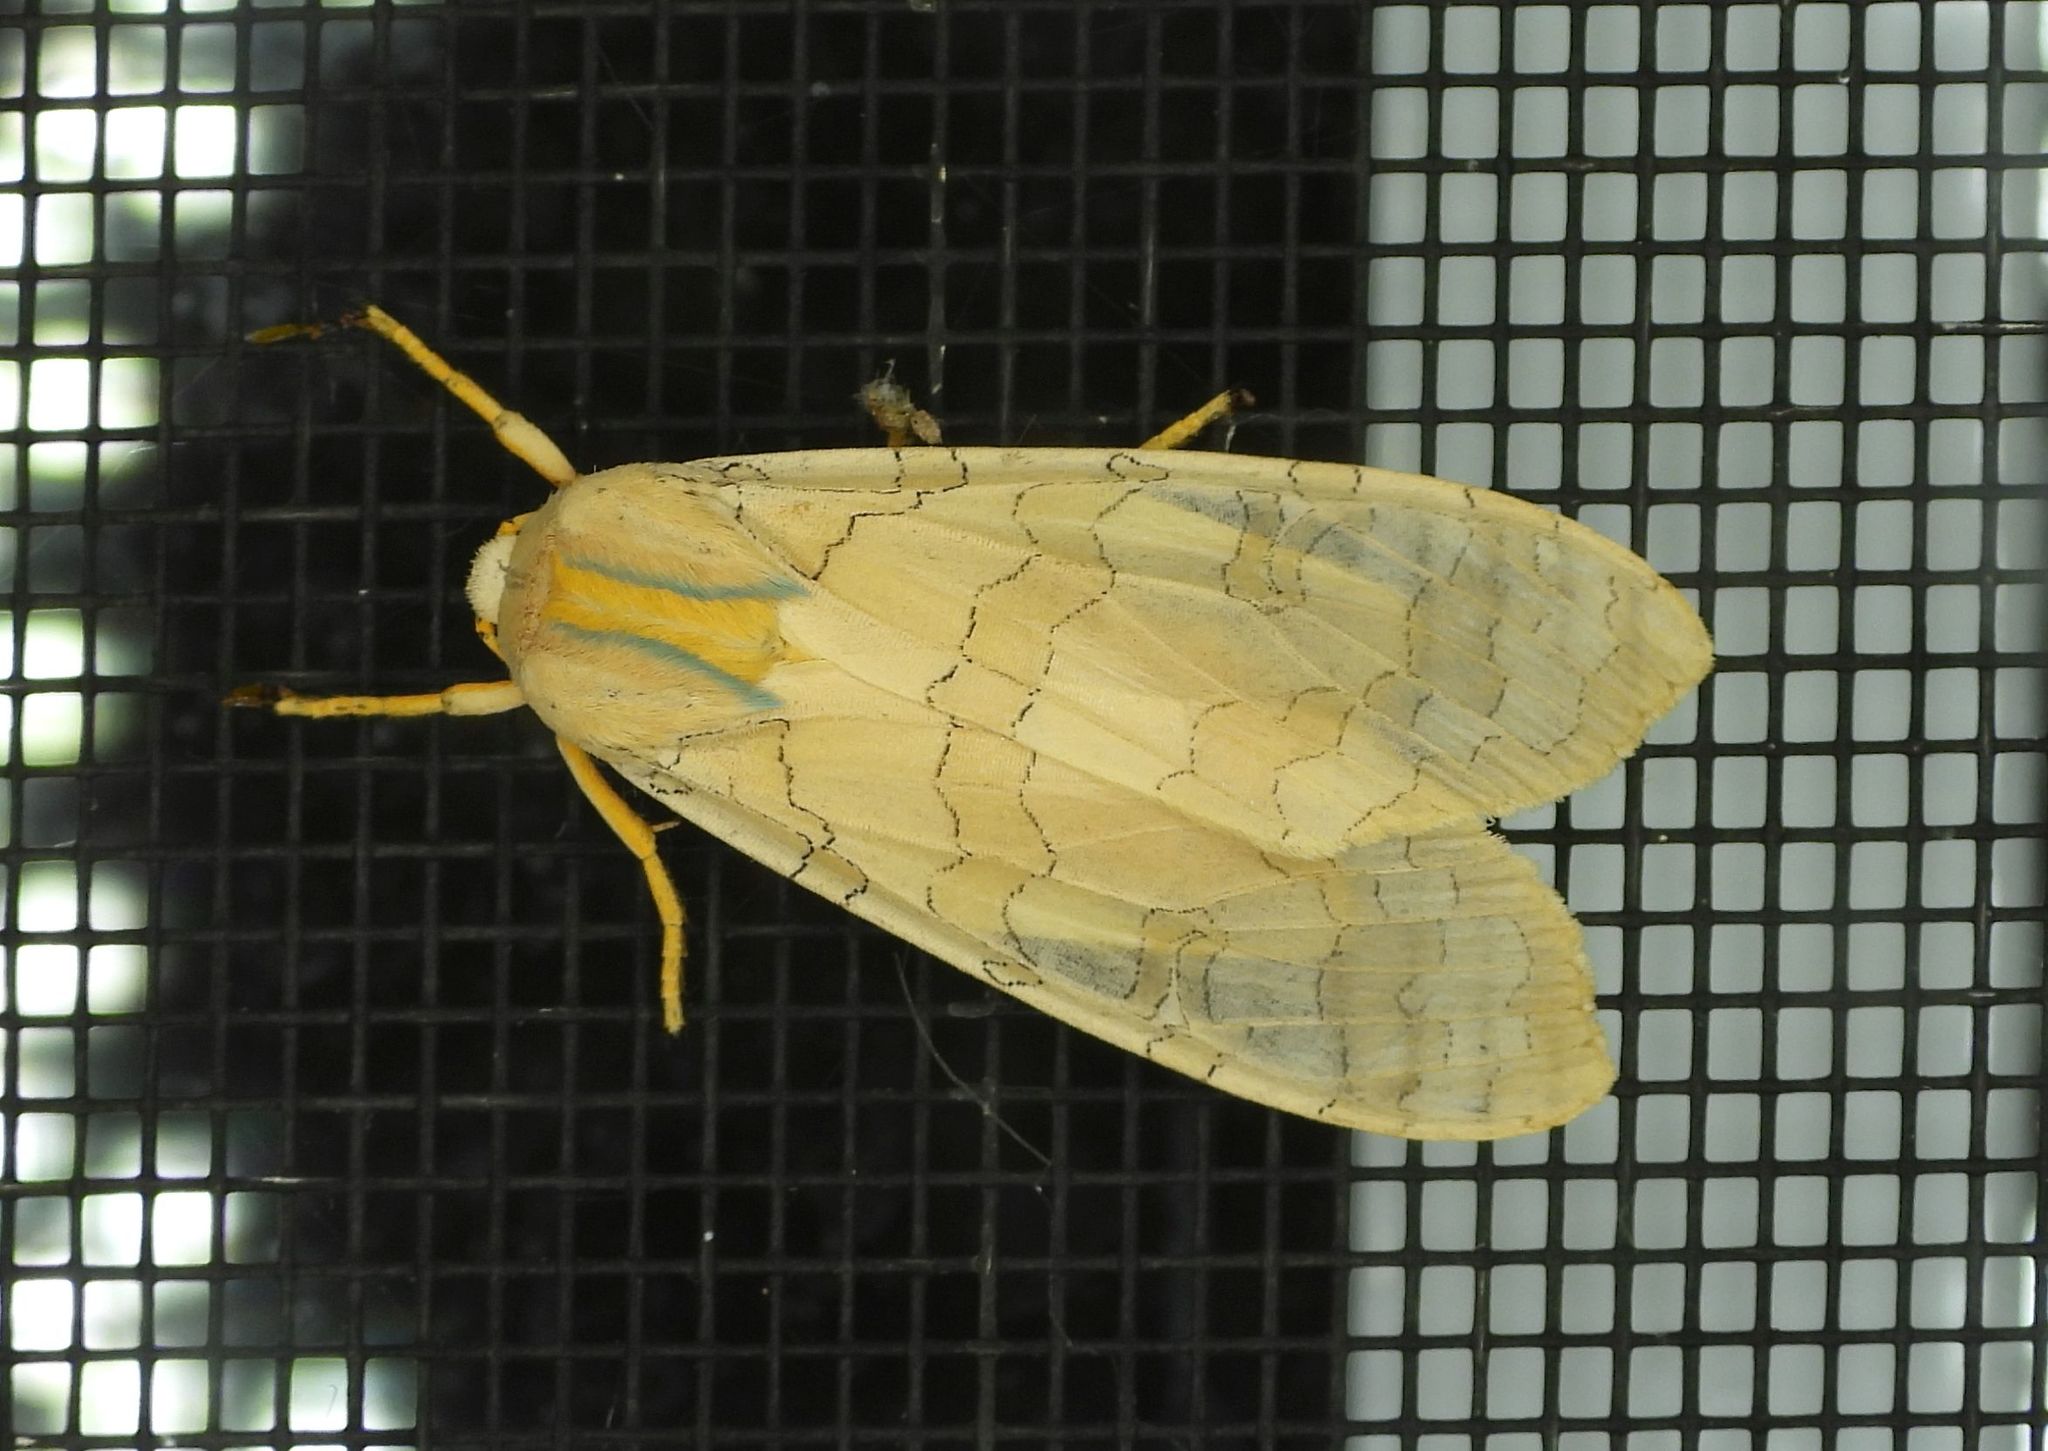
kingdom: Animalia
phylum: Arthropoda
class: Insecta
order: Lepidoptera
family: Erebidae
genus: Halysidota
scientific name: Halysidota tessellaris
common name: Banded tussock moth
